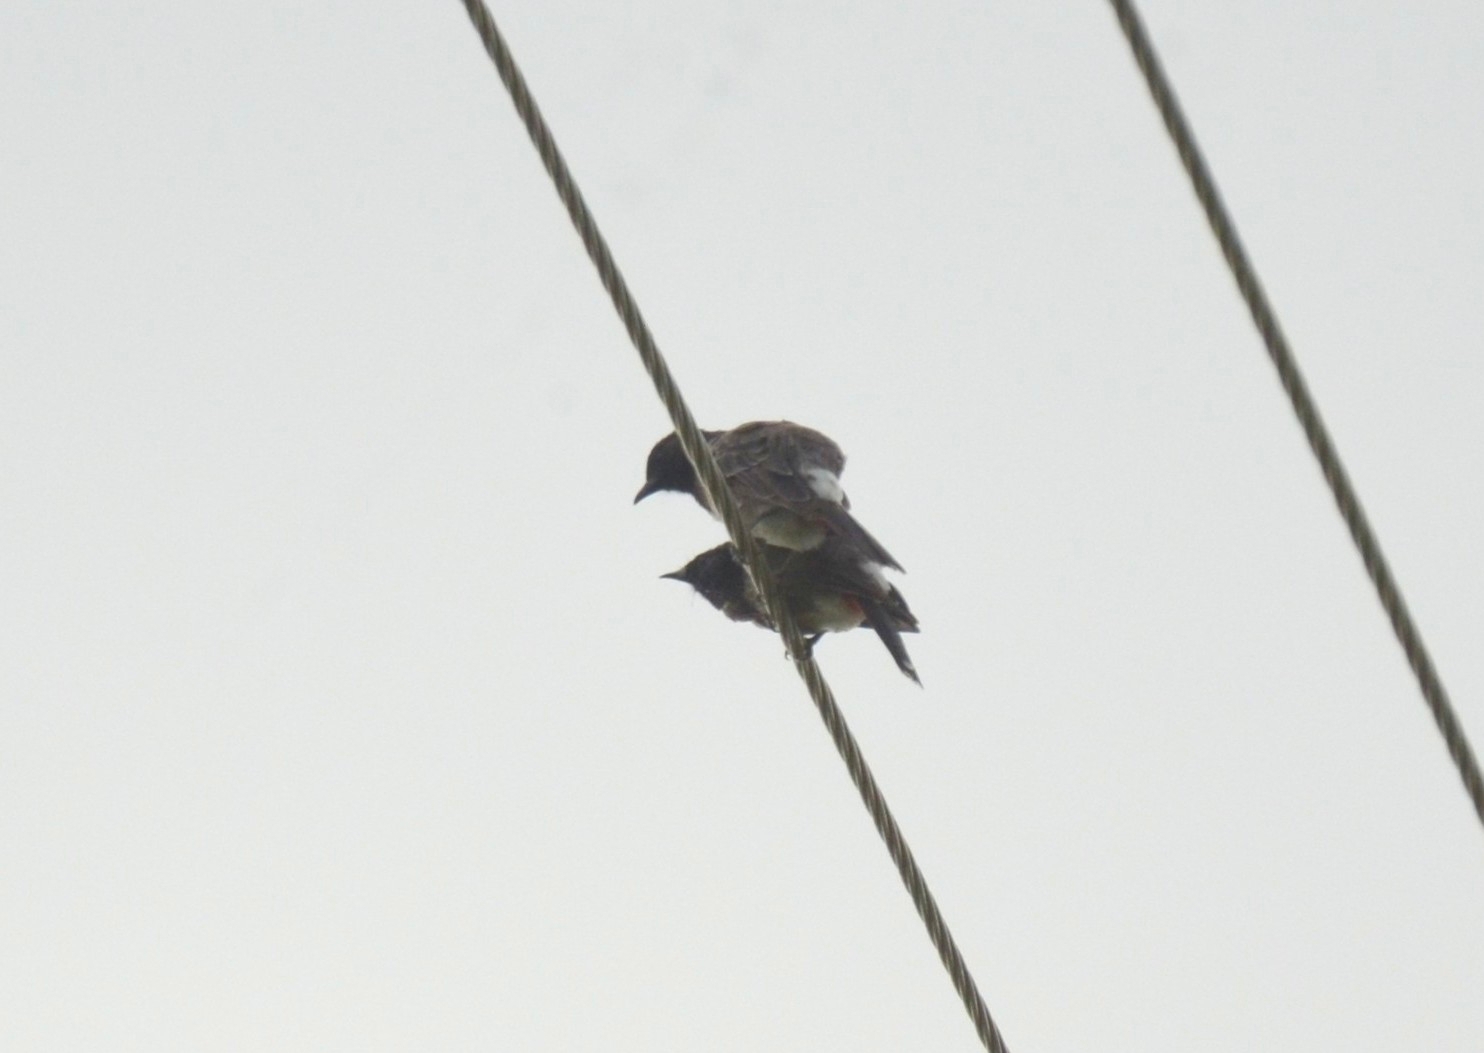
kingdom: Animalia
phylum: Chordata
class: Aves
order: Passeriformes
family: Pycnonotidae
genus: Pycnonotus
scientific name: Pycnonotus cafer
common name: Red-vented bulbul
